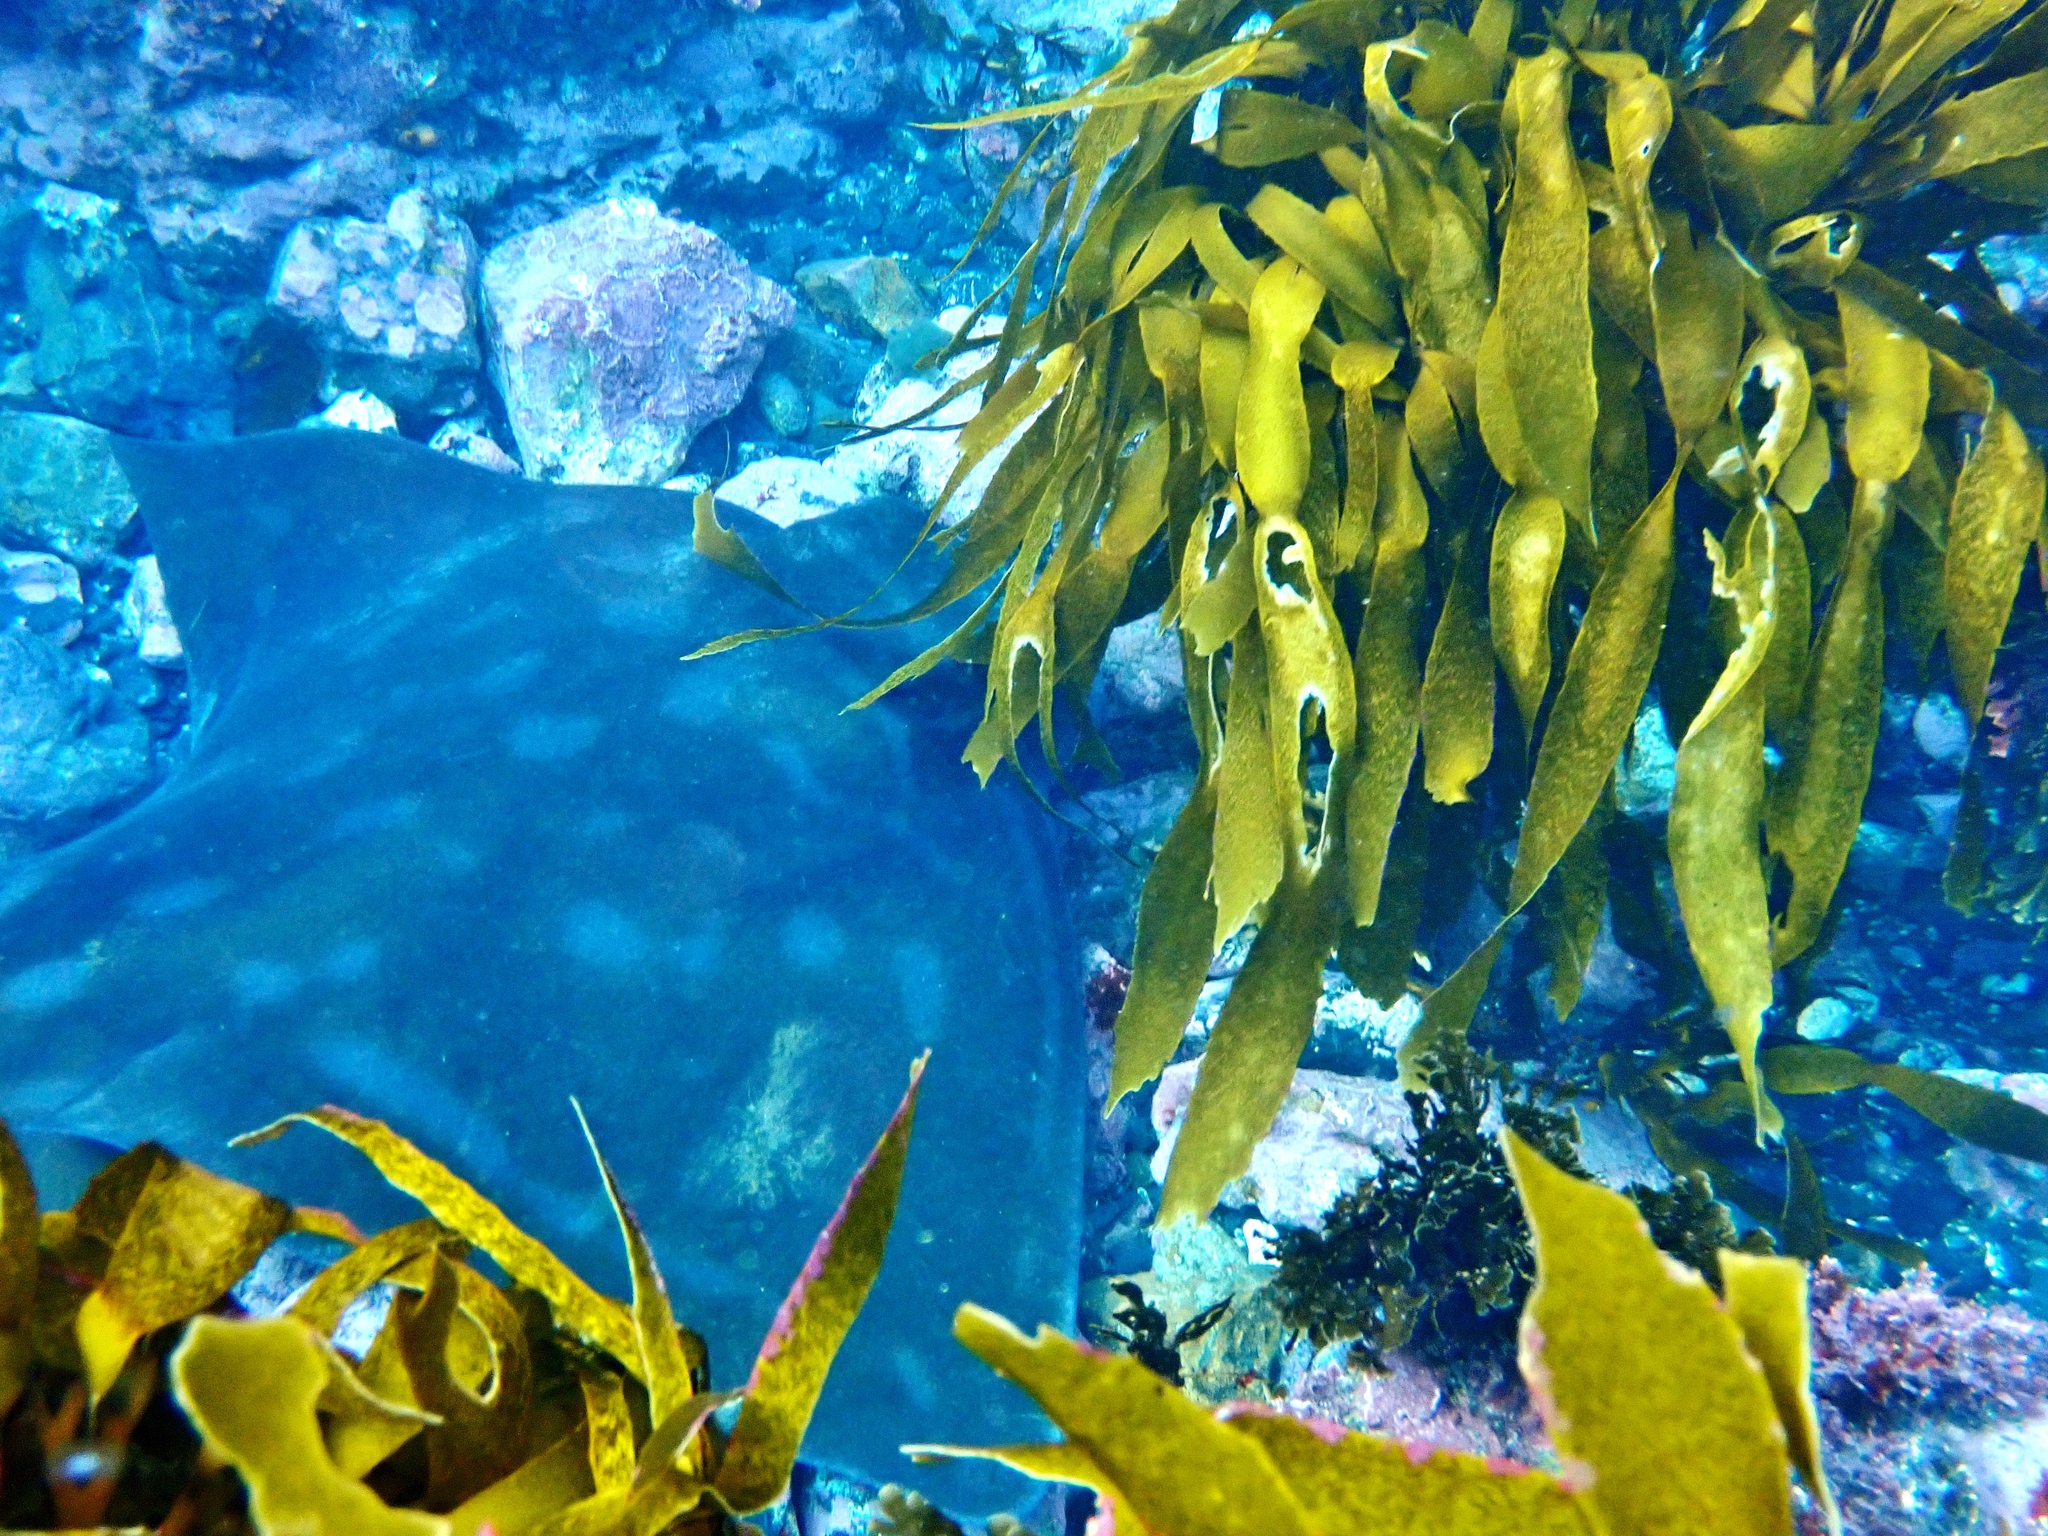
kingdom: Animalia
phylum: Chordata
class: Elasmobranchii
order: Myliobatiformes
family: Myliobatidae
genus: Myliobatis
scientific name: Myliobatis tenuicaudatus
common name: Eagle ray
